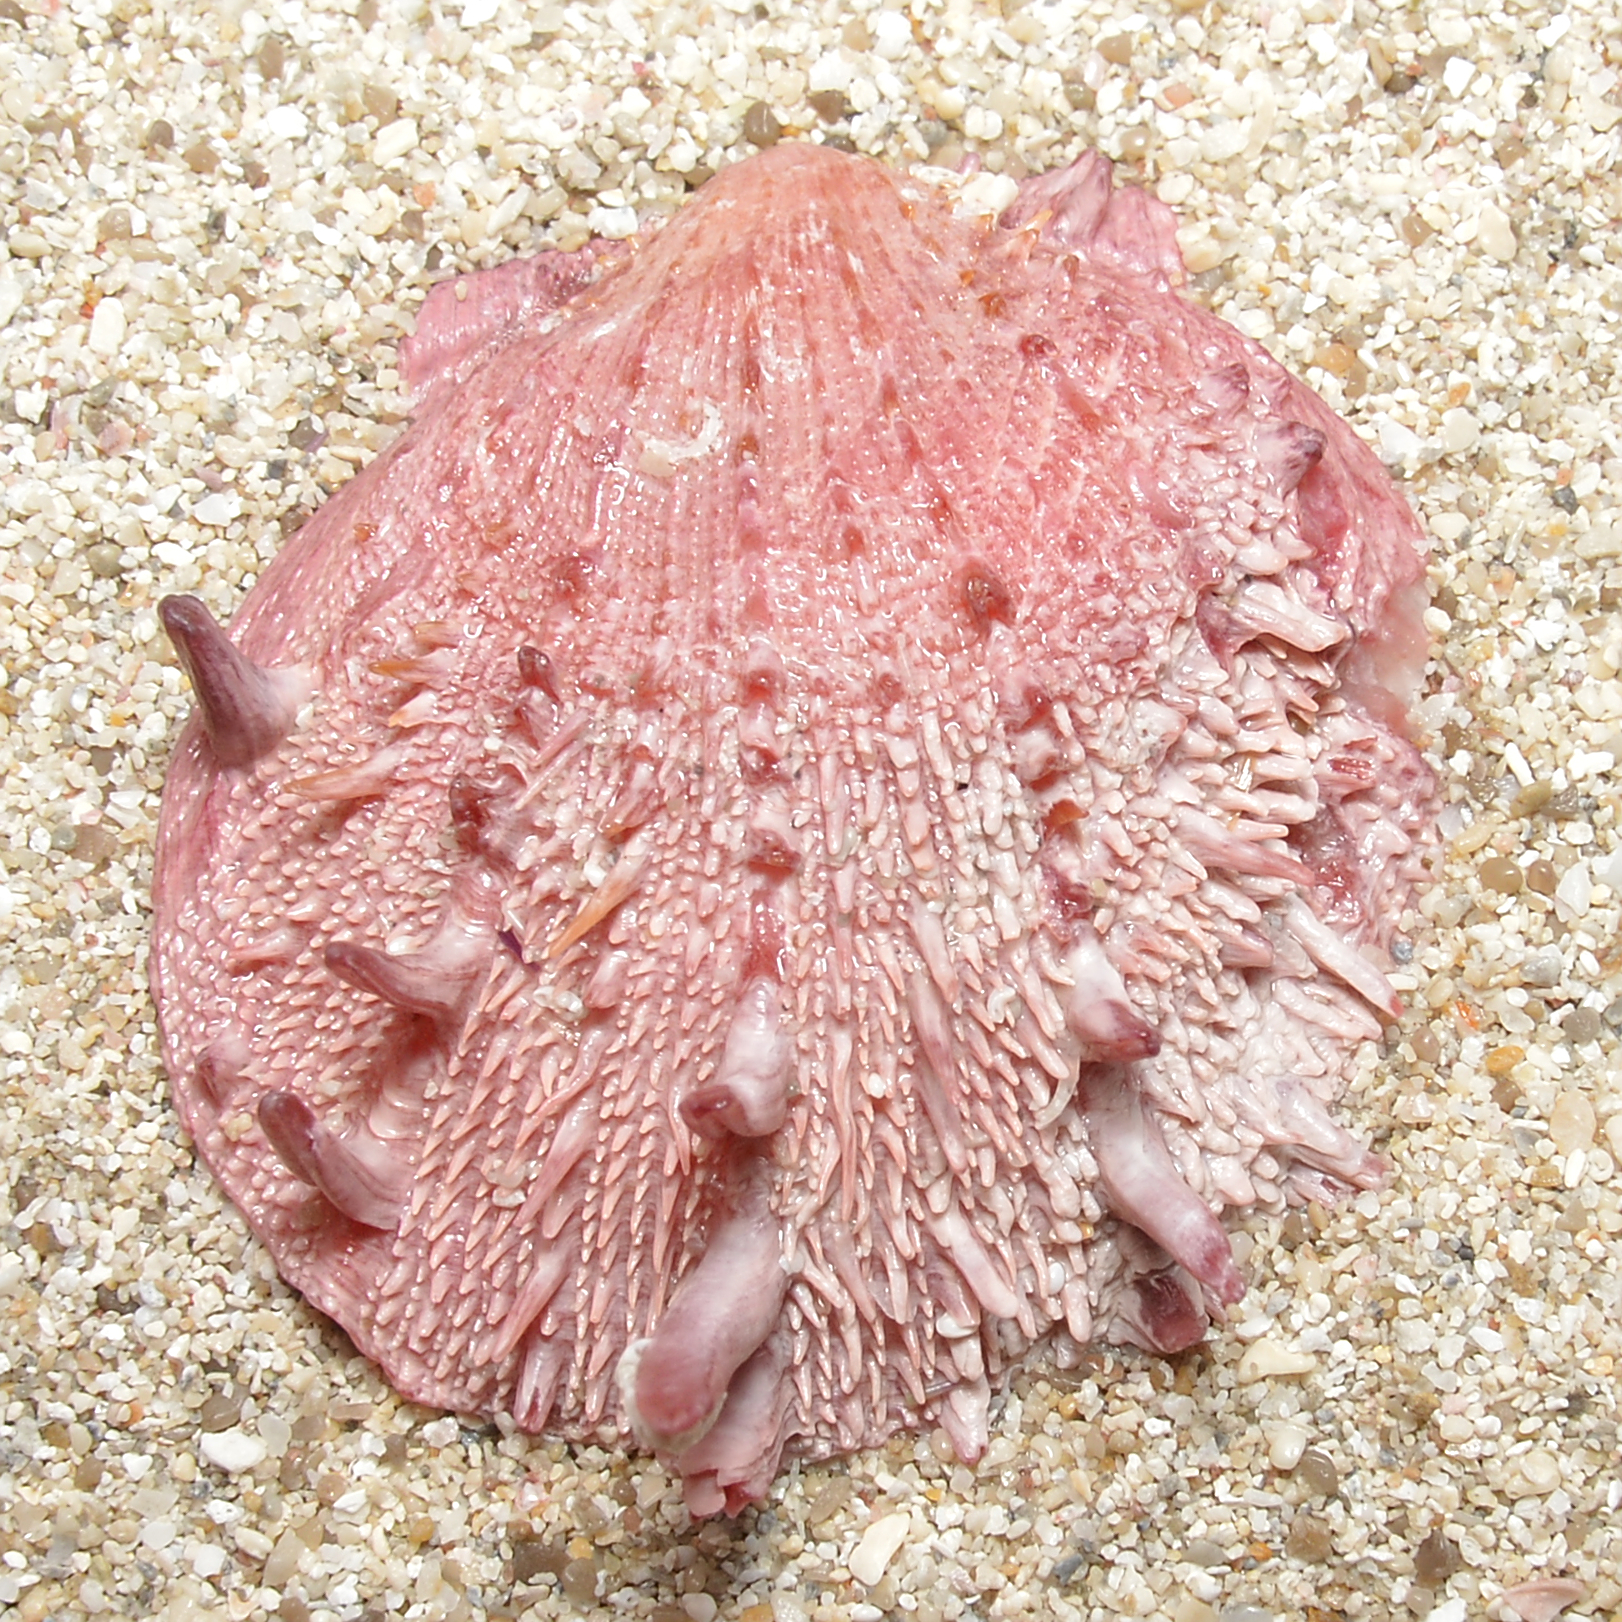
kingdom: Animalia
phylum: Mollusca
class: Bivalvia
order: Pectinida
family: Spondylidae
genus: Spondylus
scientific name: Spondylus gaederopus
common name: European thorny oyster
